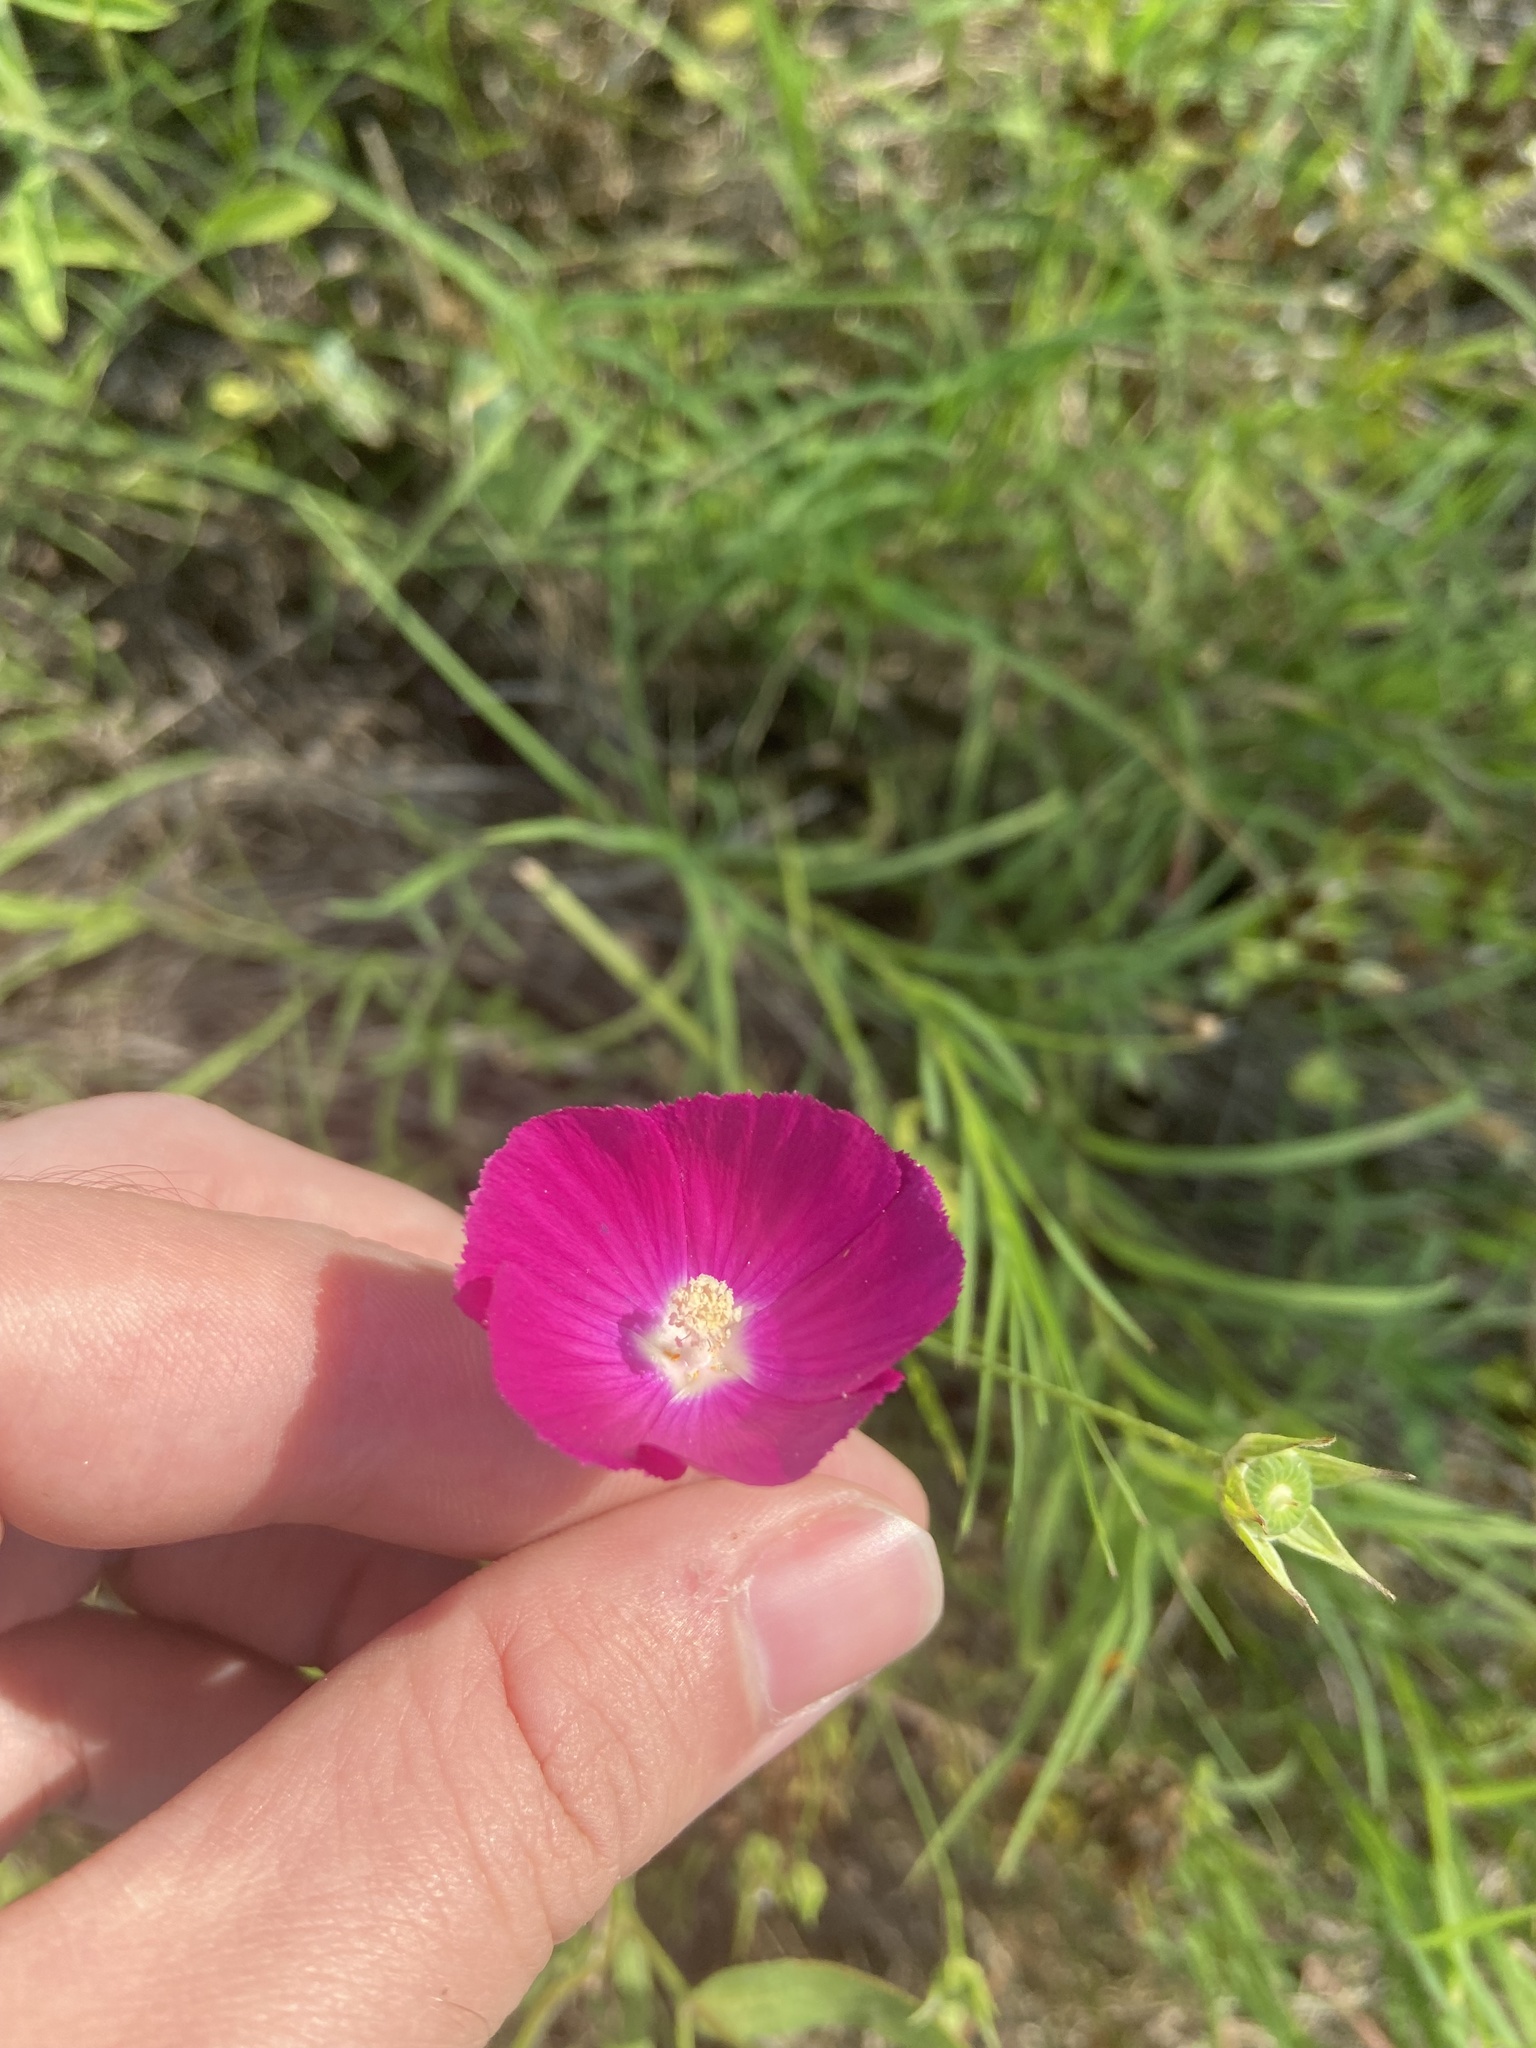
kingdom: Plantae
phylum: Tracheophyta
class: Magnoliopsida
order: Malvales
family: Malvaceae
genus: Callirhoe
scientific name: Callirhoe leiocarpa
